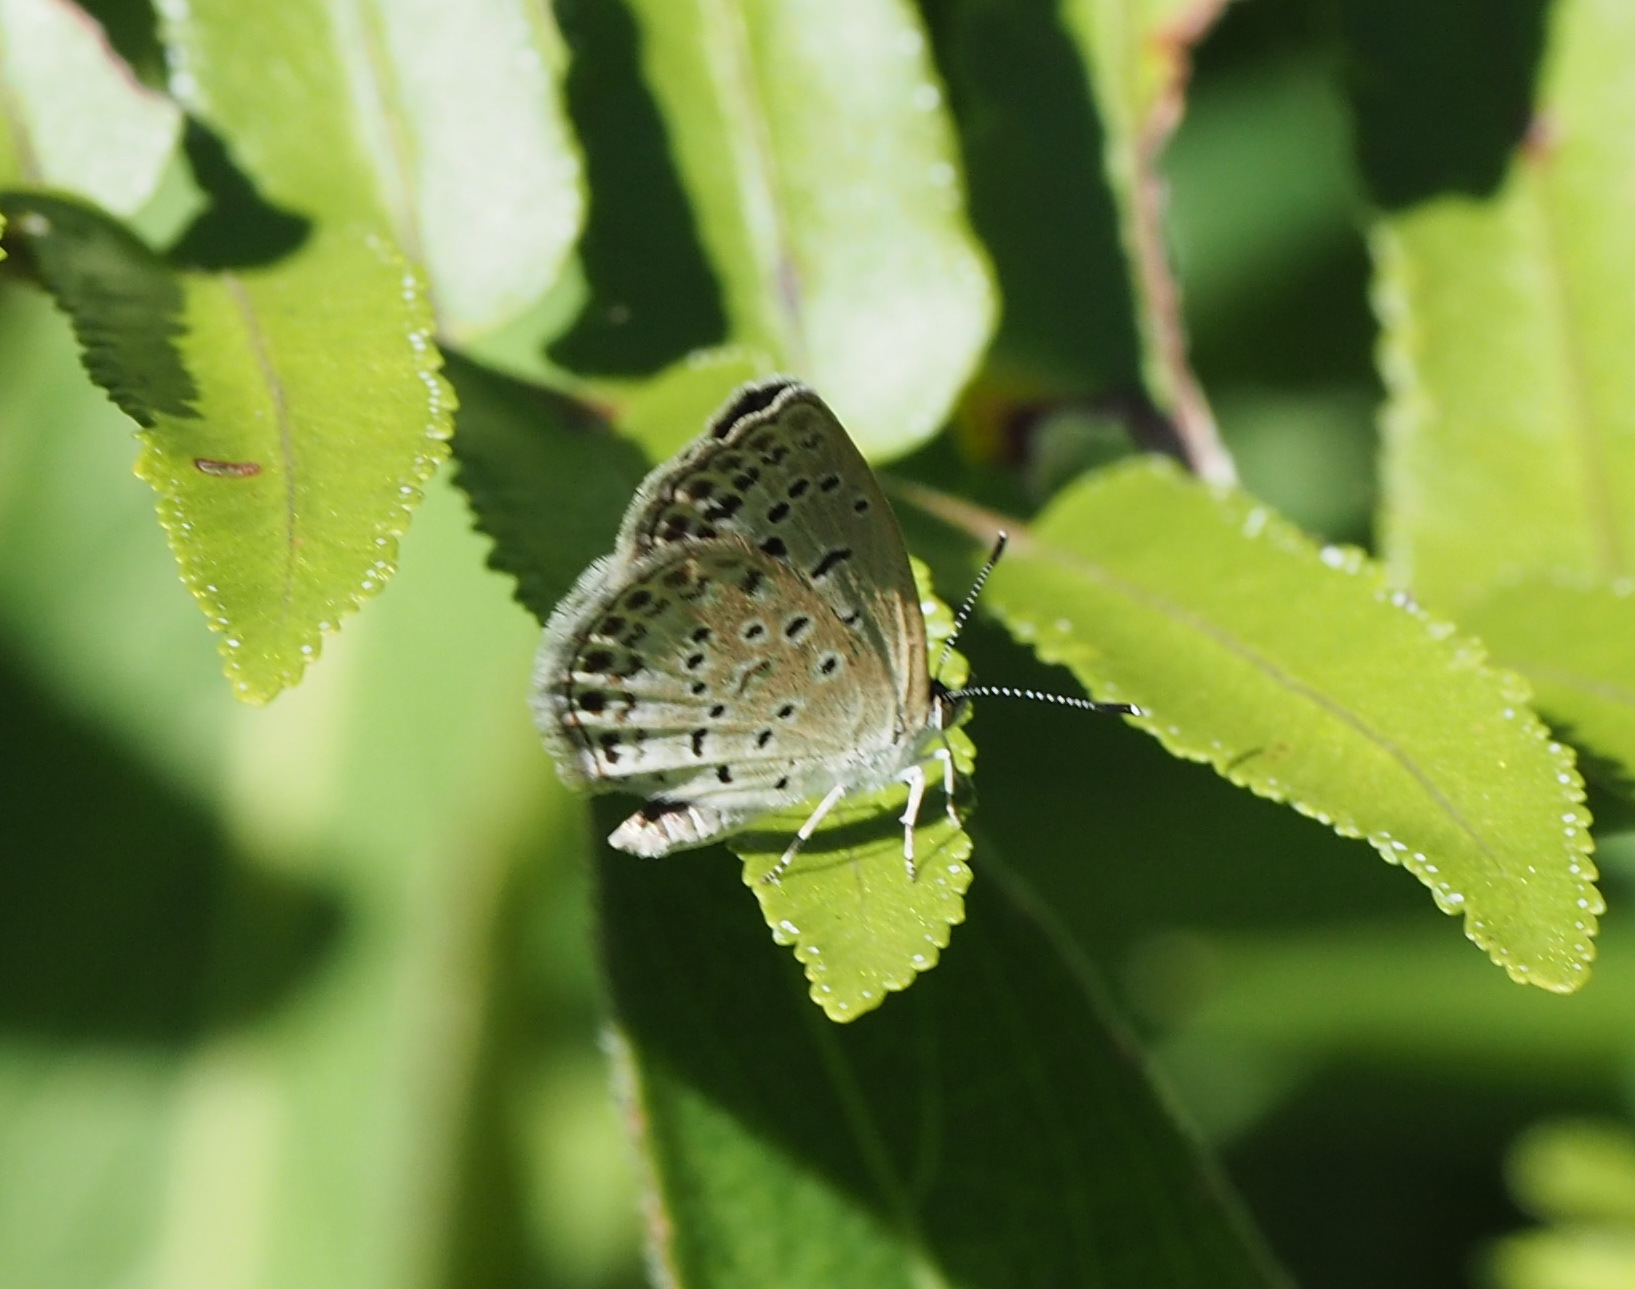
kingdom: Animalia
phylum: Arthropoda
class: Insecta
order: Lepidoptera
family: Lycaenidae
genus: Pseudozizeeria
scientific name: Pseudozizeeria maha
